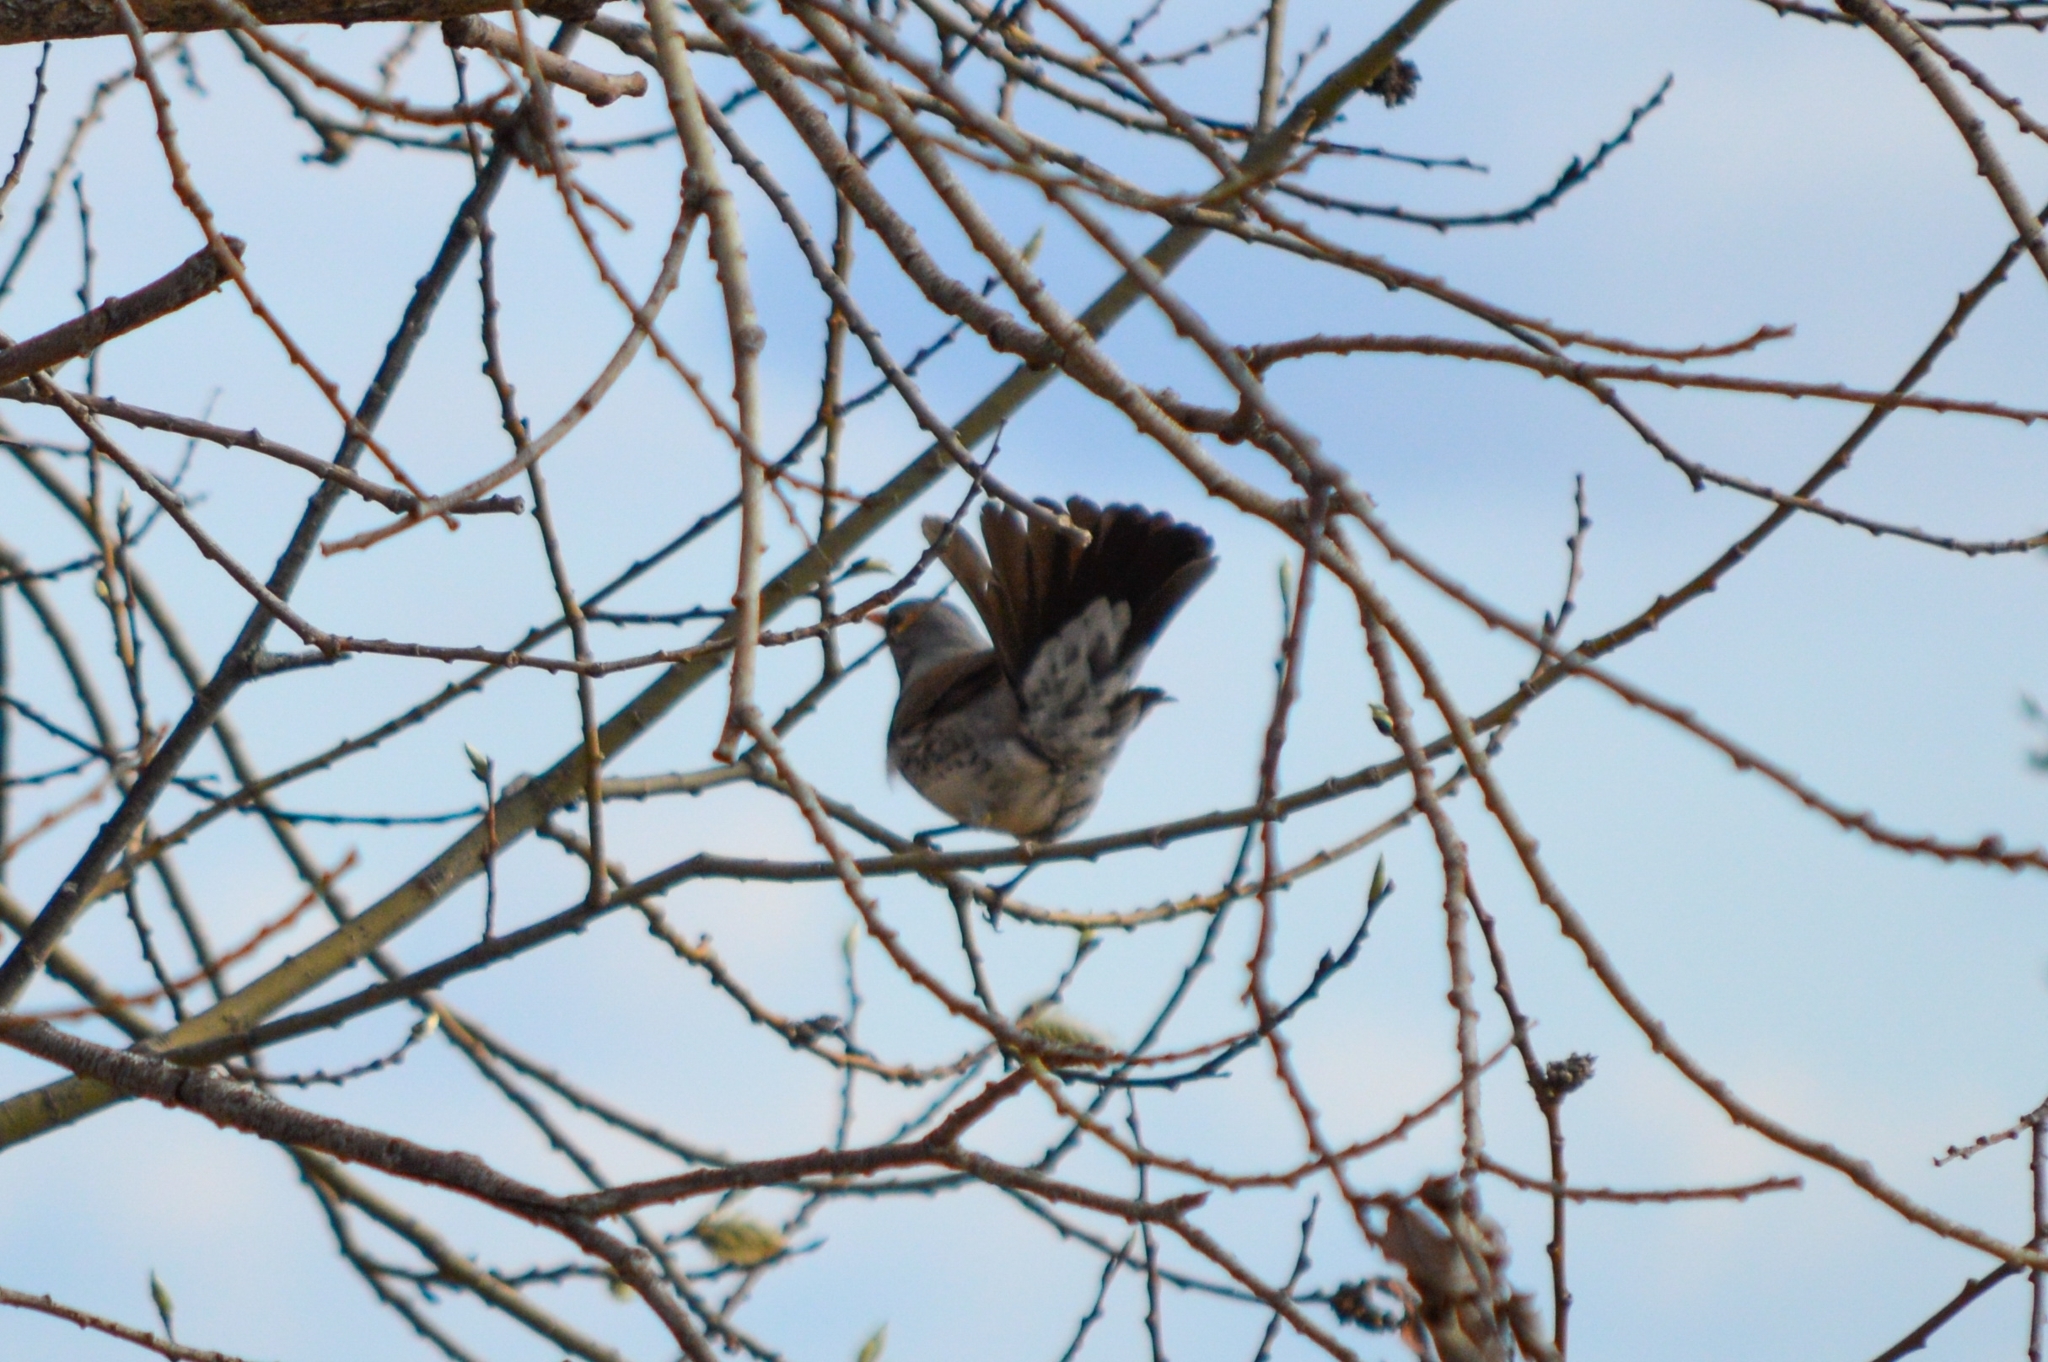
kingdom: Animalia
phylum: Chordata
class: Aves
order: Passeriformes
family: Turdidae
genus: Turdus
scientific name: Turdus pilaris
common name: Fieldfare
